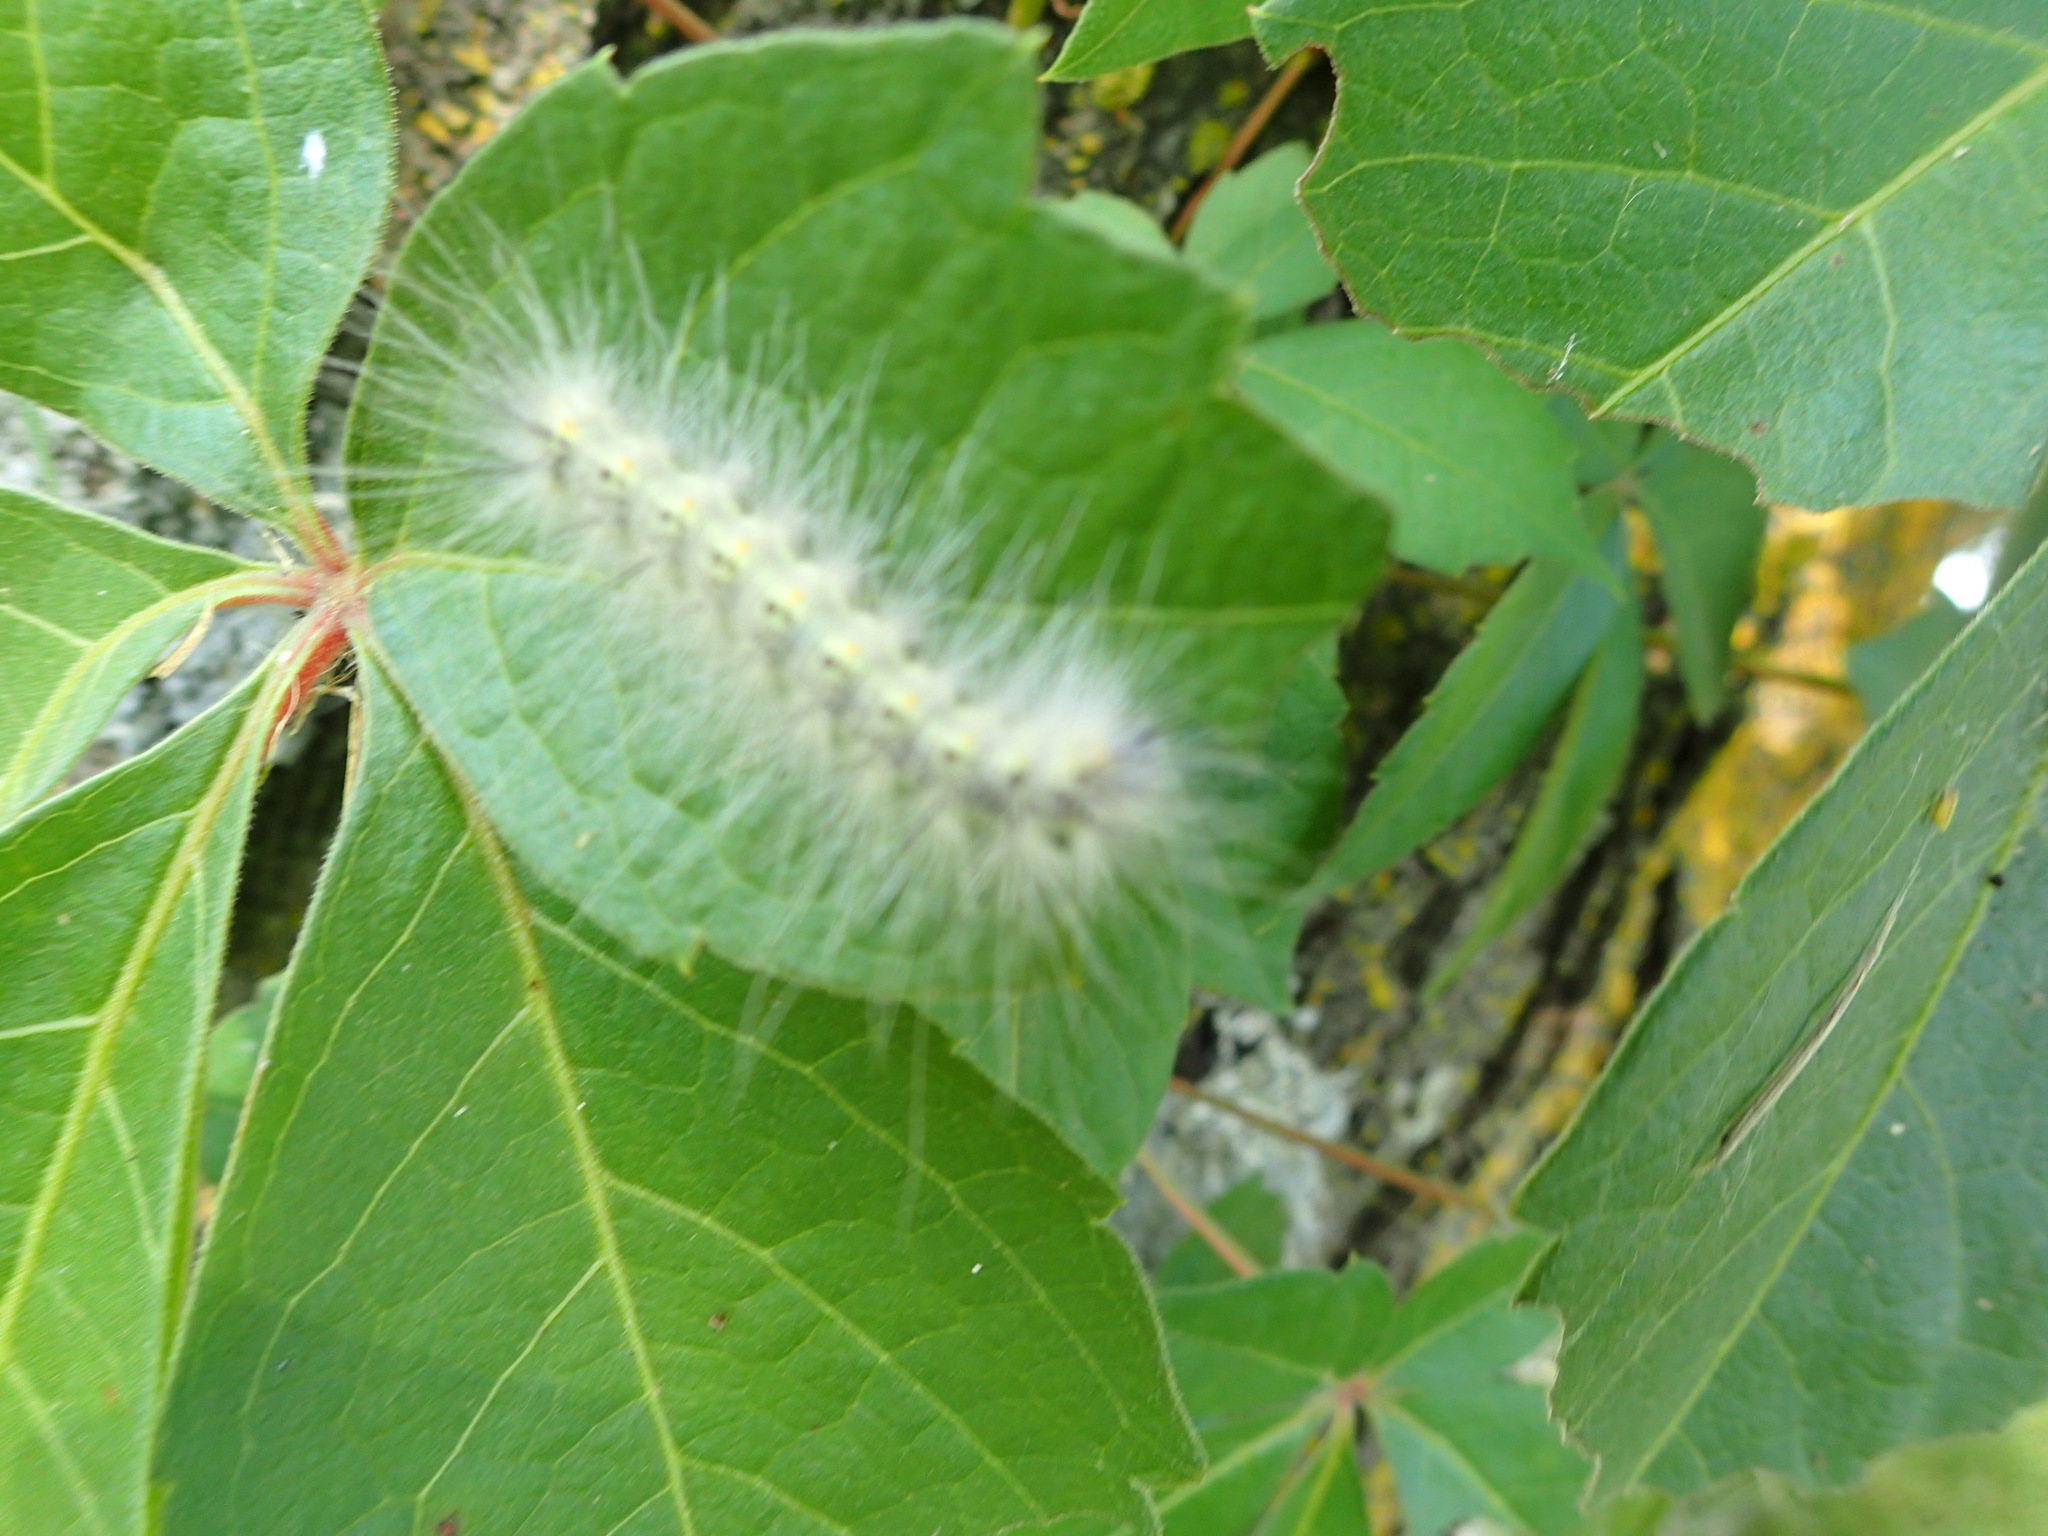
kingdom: Animalia
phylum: Arthropoda
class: Insecta
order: Lepidoptera
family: Erebidae
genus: Hyphantria
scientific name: Hyphantria cunea
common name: American white moth
